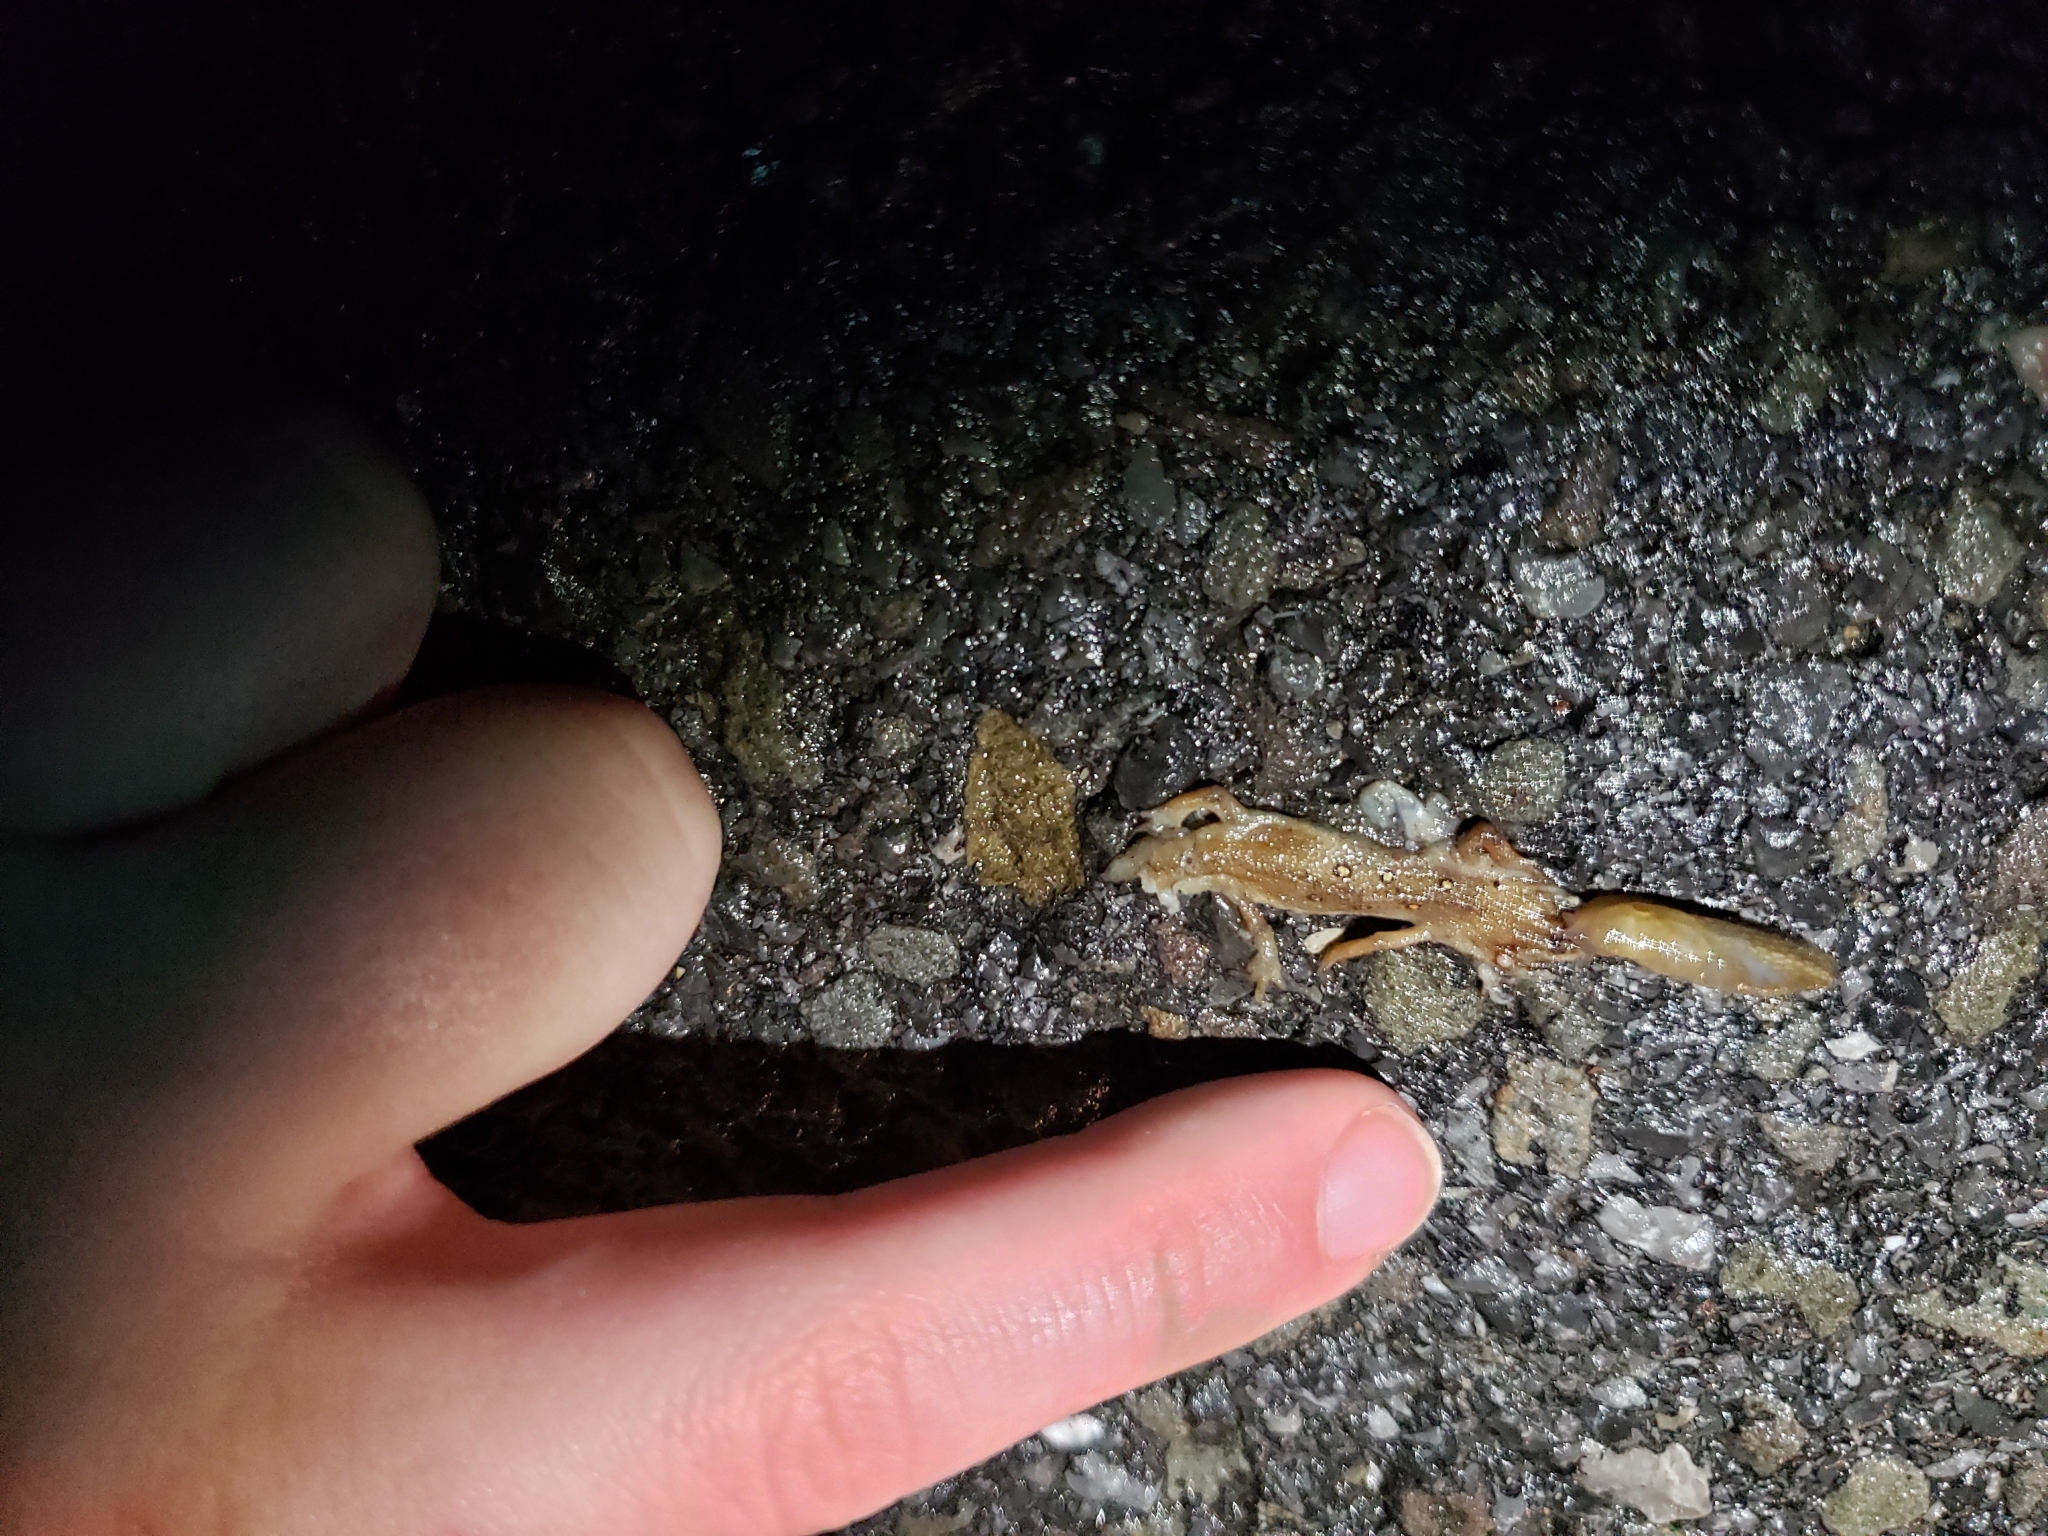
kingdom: Animalia
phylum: Chordata
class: Amphibia
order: Caudata
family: Salamandridae
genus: Notophthalmus
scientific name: Notophthalmus viridescens
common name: Eastern newt
